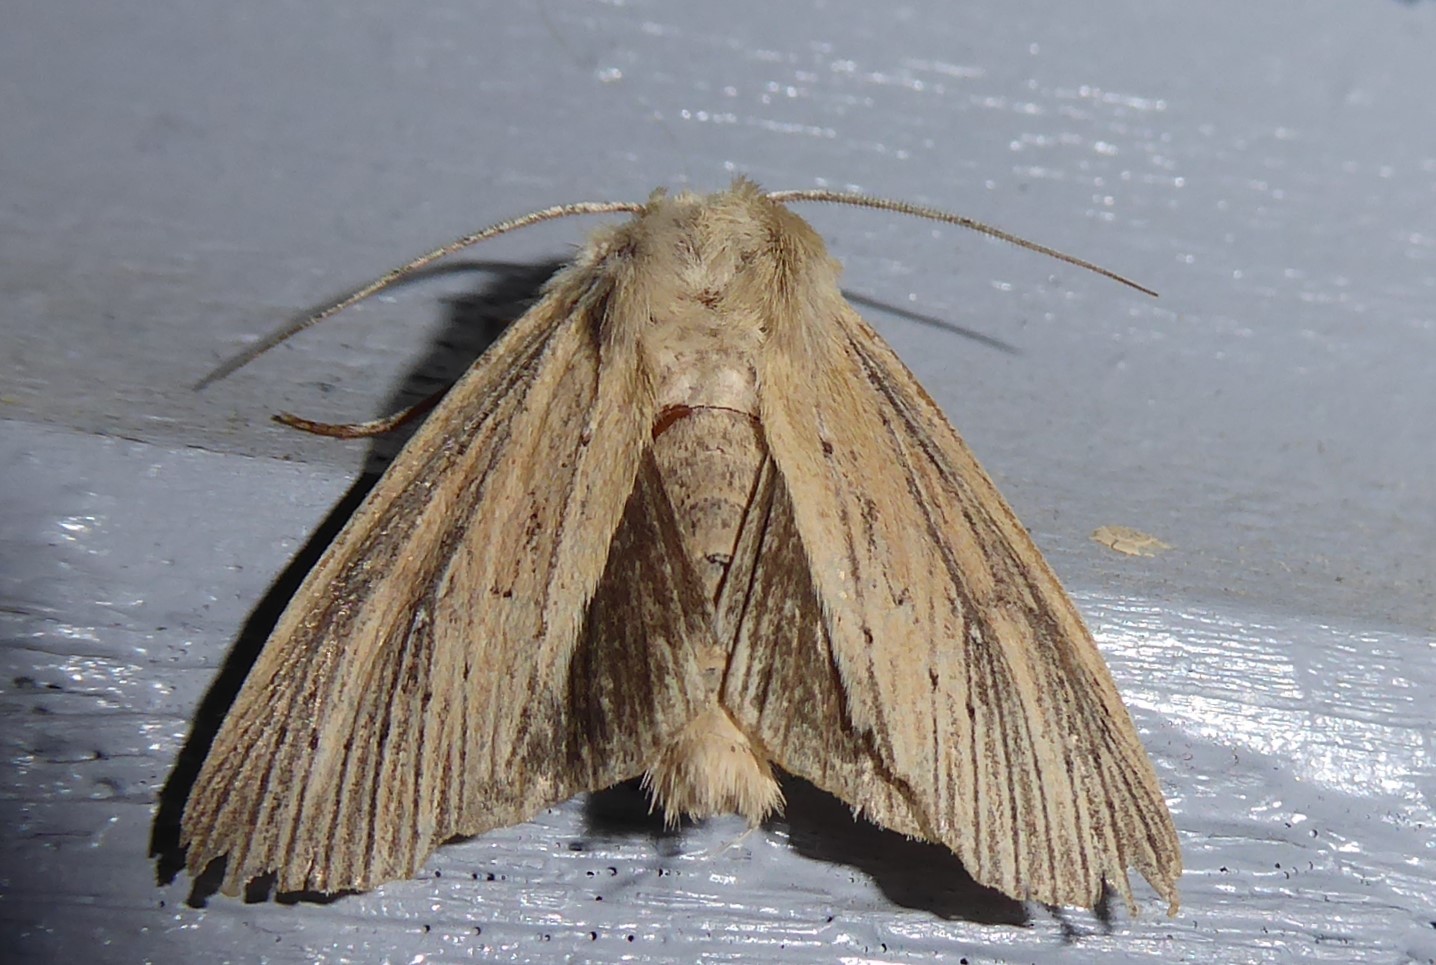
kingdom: Animalia
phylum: Arthropoda
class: Insecta
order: Lepidoptera
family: Noctuidae
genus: Ichneutica
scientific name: Ichneutica arotis
